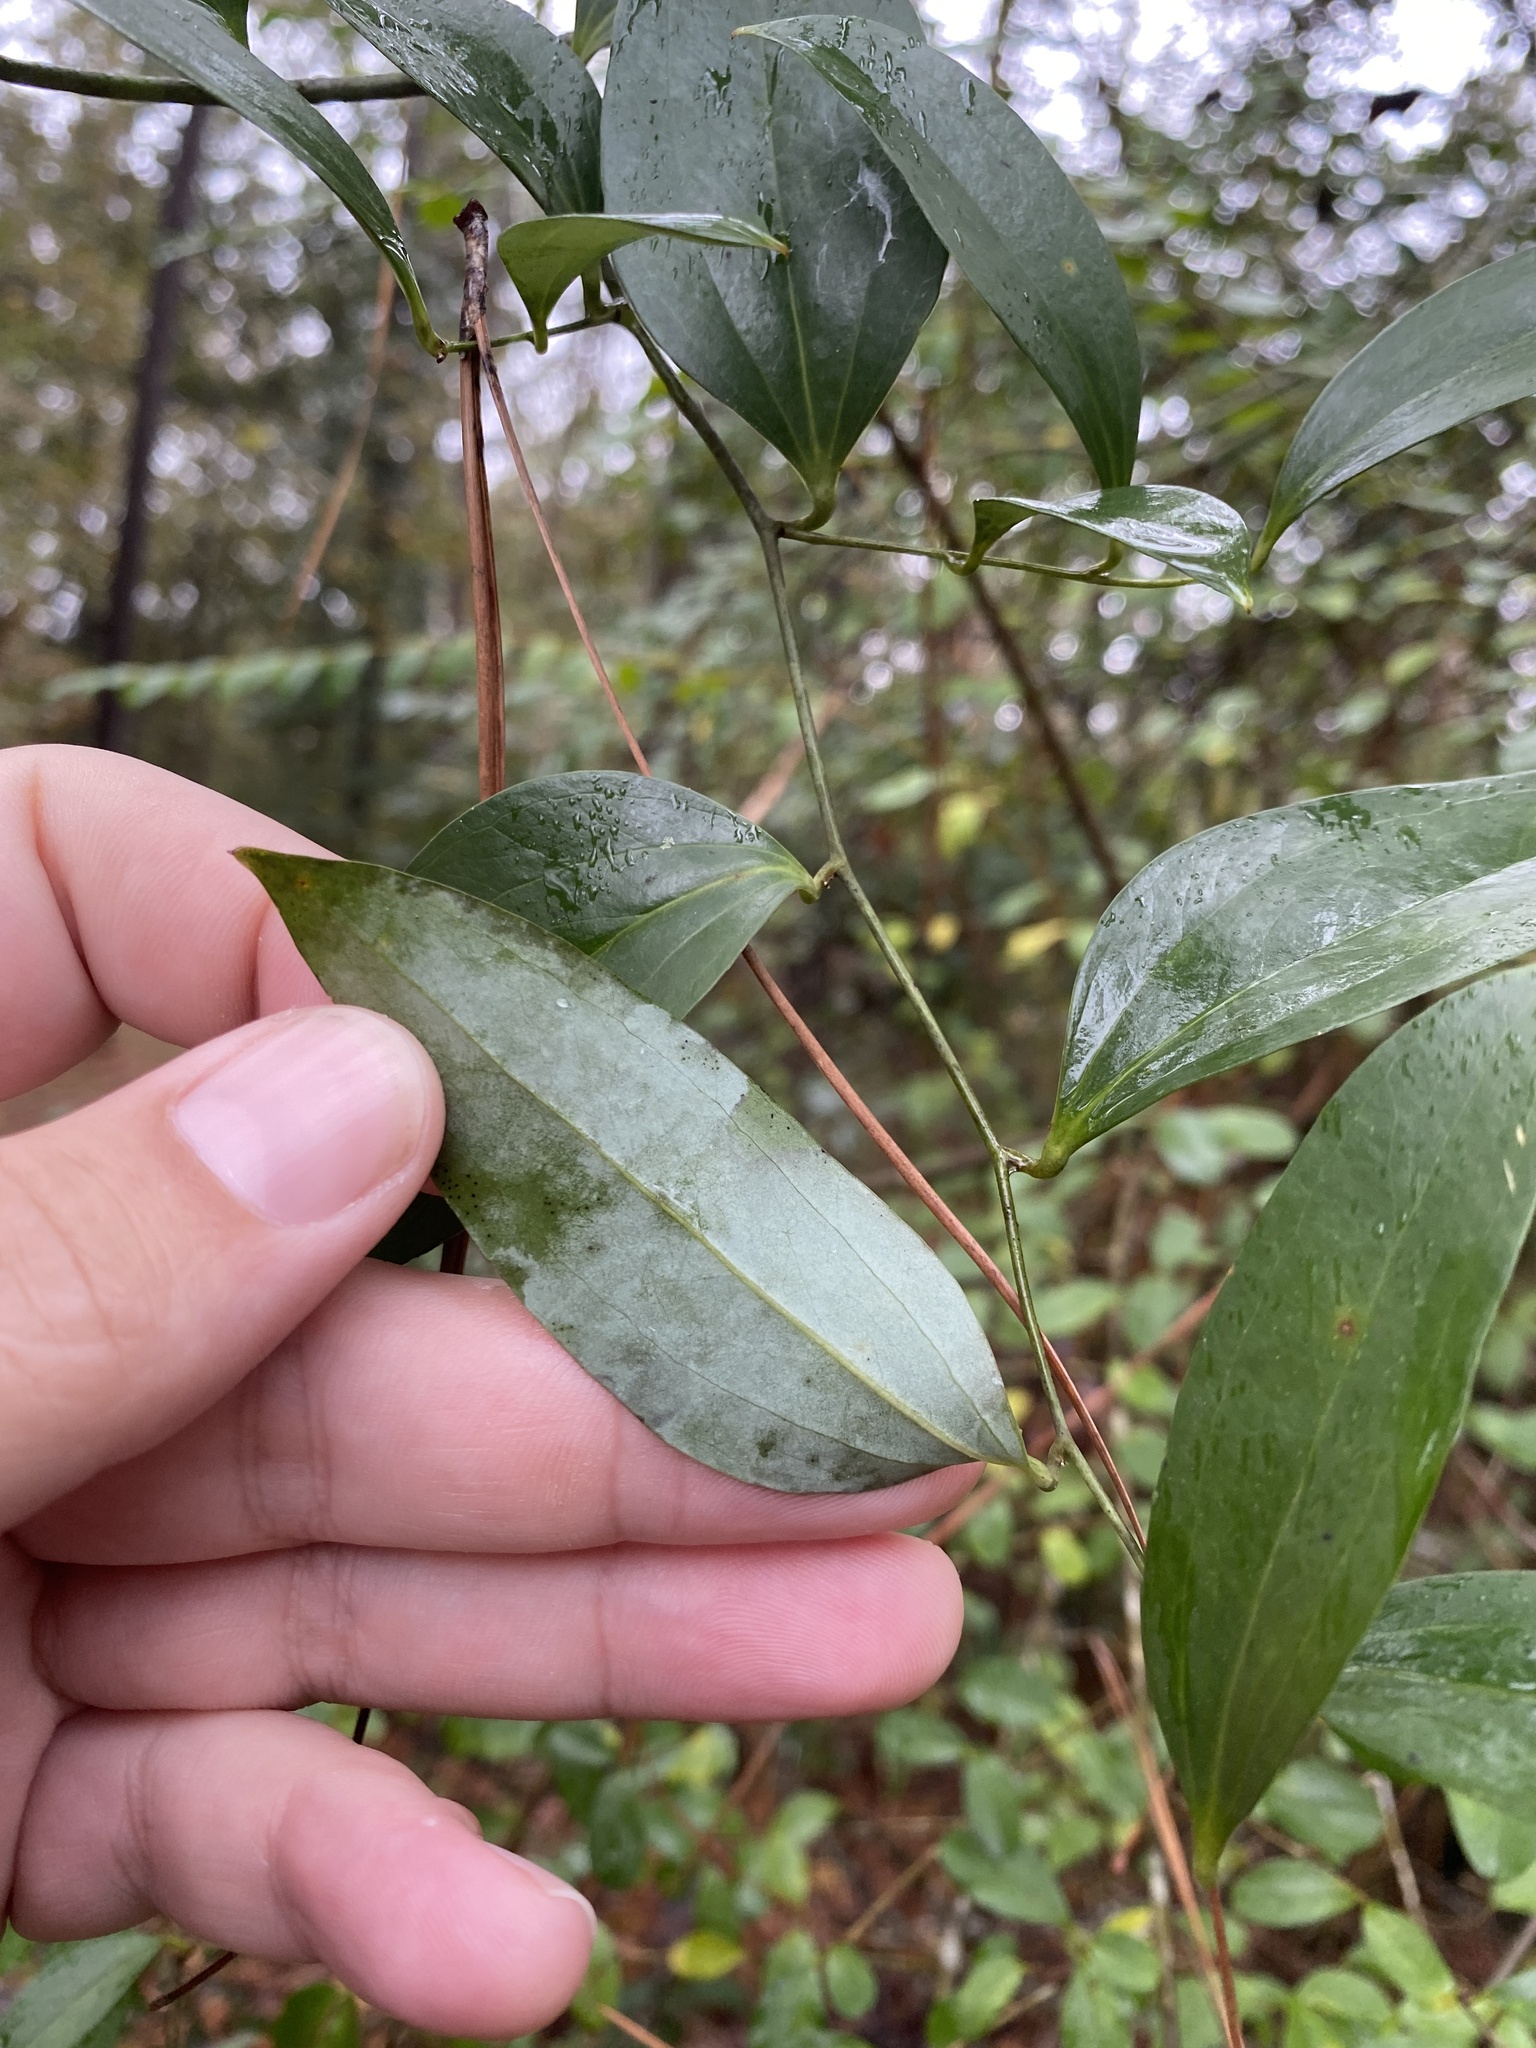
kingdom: Plantae
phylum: Tracheophyta
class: Liliopsida
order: Liliales
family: Smilacaceae
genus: Smilax
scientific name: Smilax maritima
